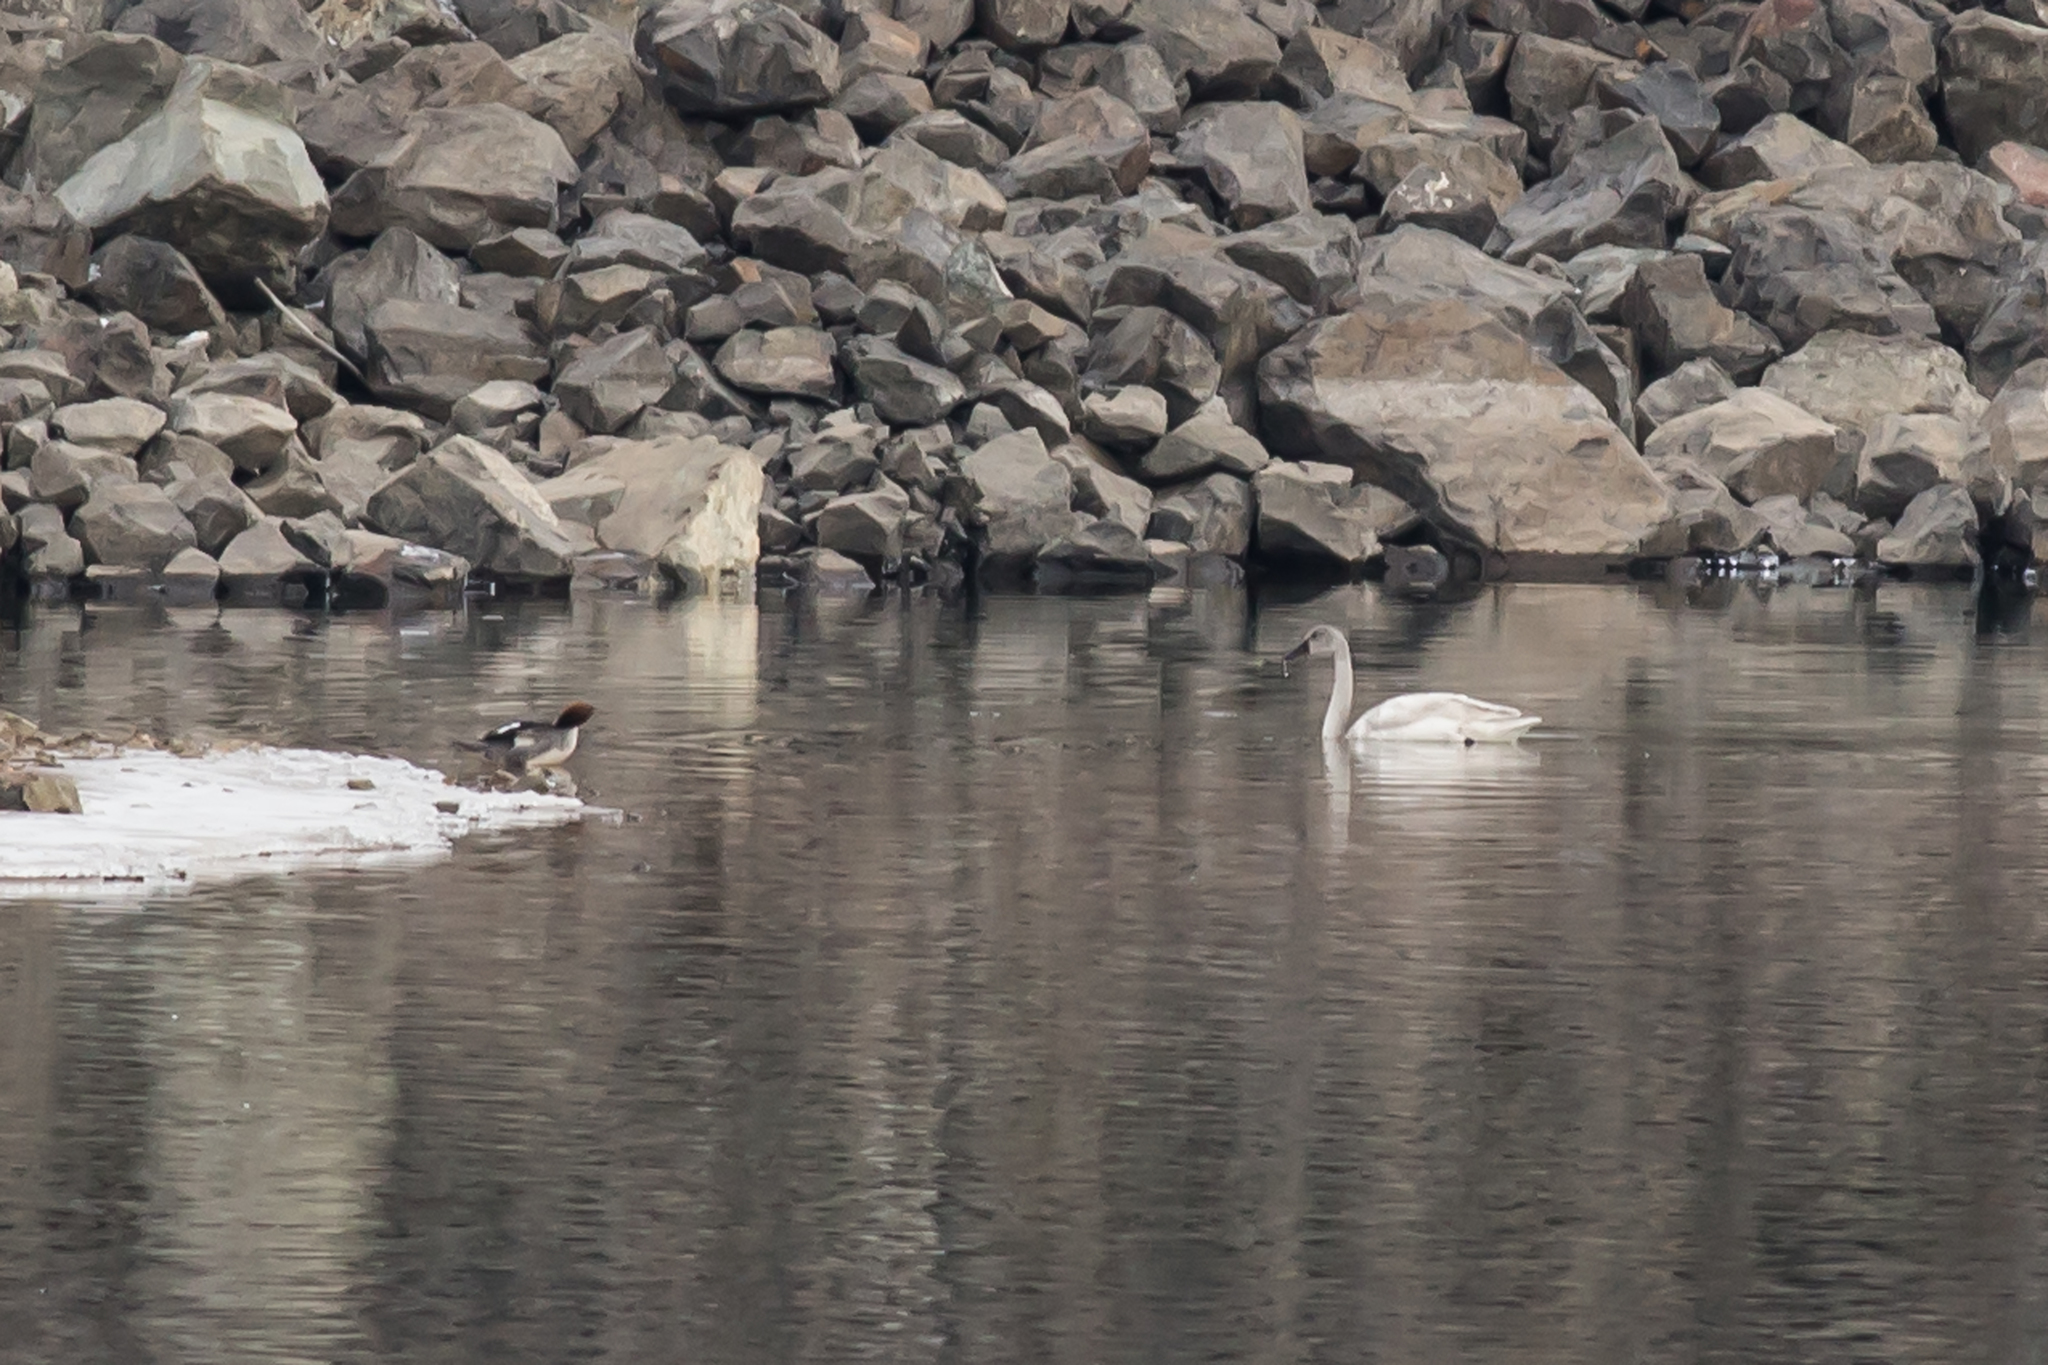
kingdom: Animalia
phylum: Chordata
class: Aves
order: Anseriformes
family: Anatidae
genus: Cygnus
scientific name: Cygnus columbianus
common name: Tundra swan
